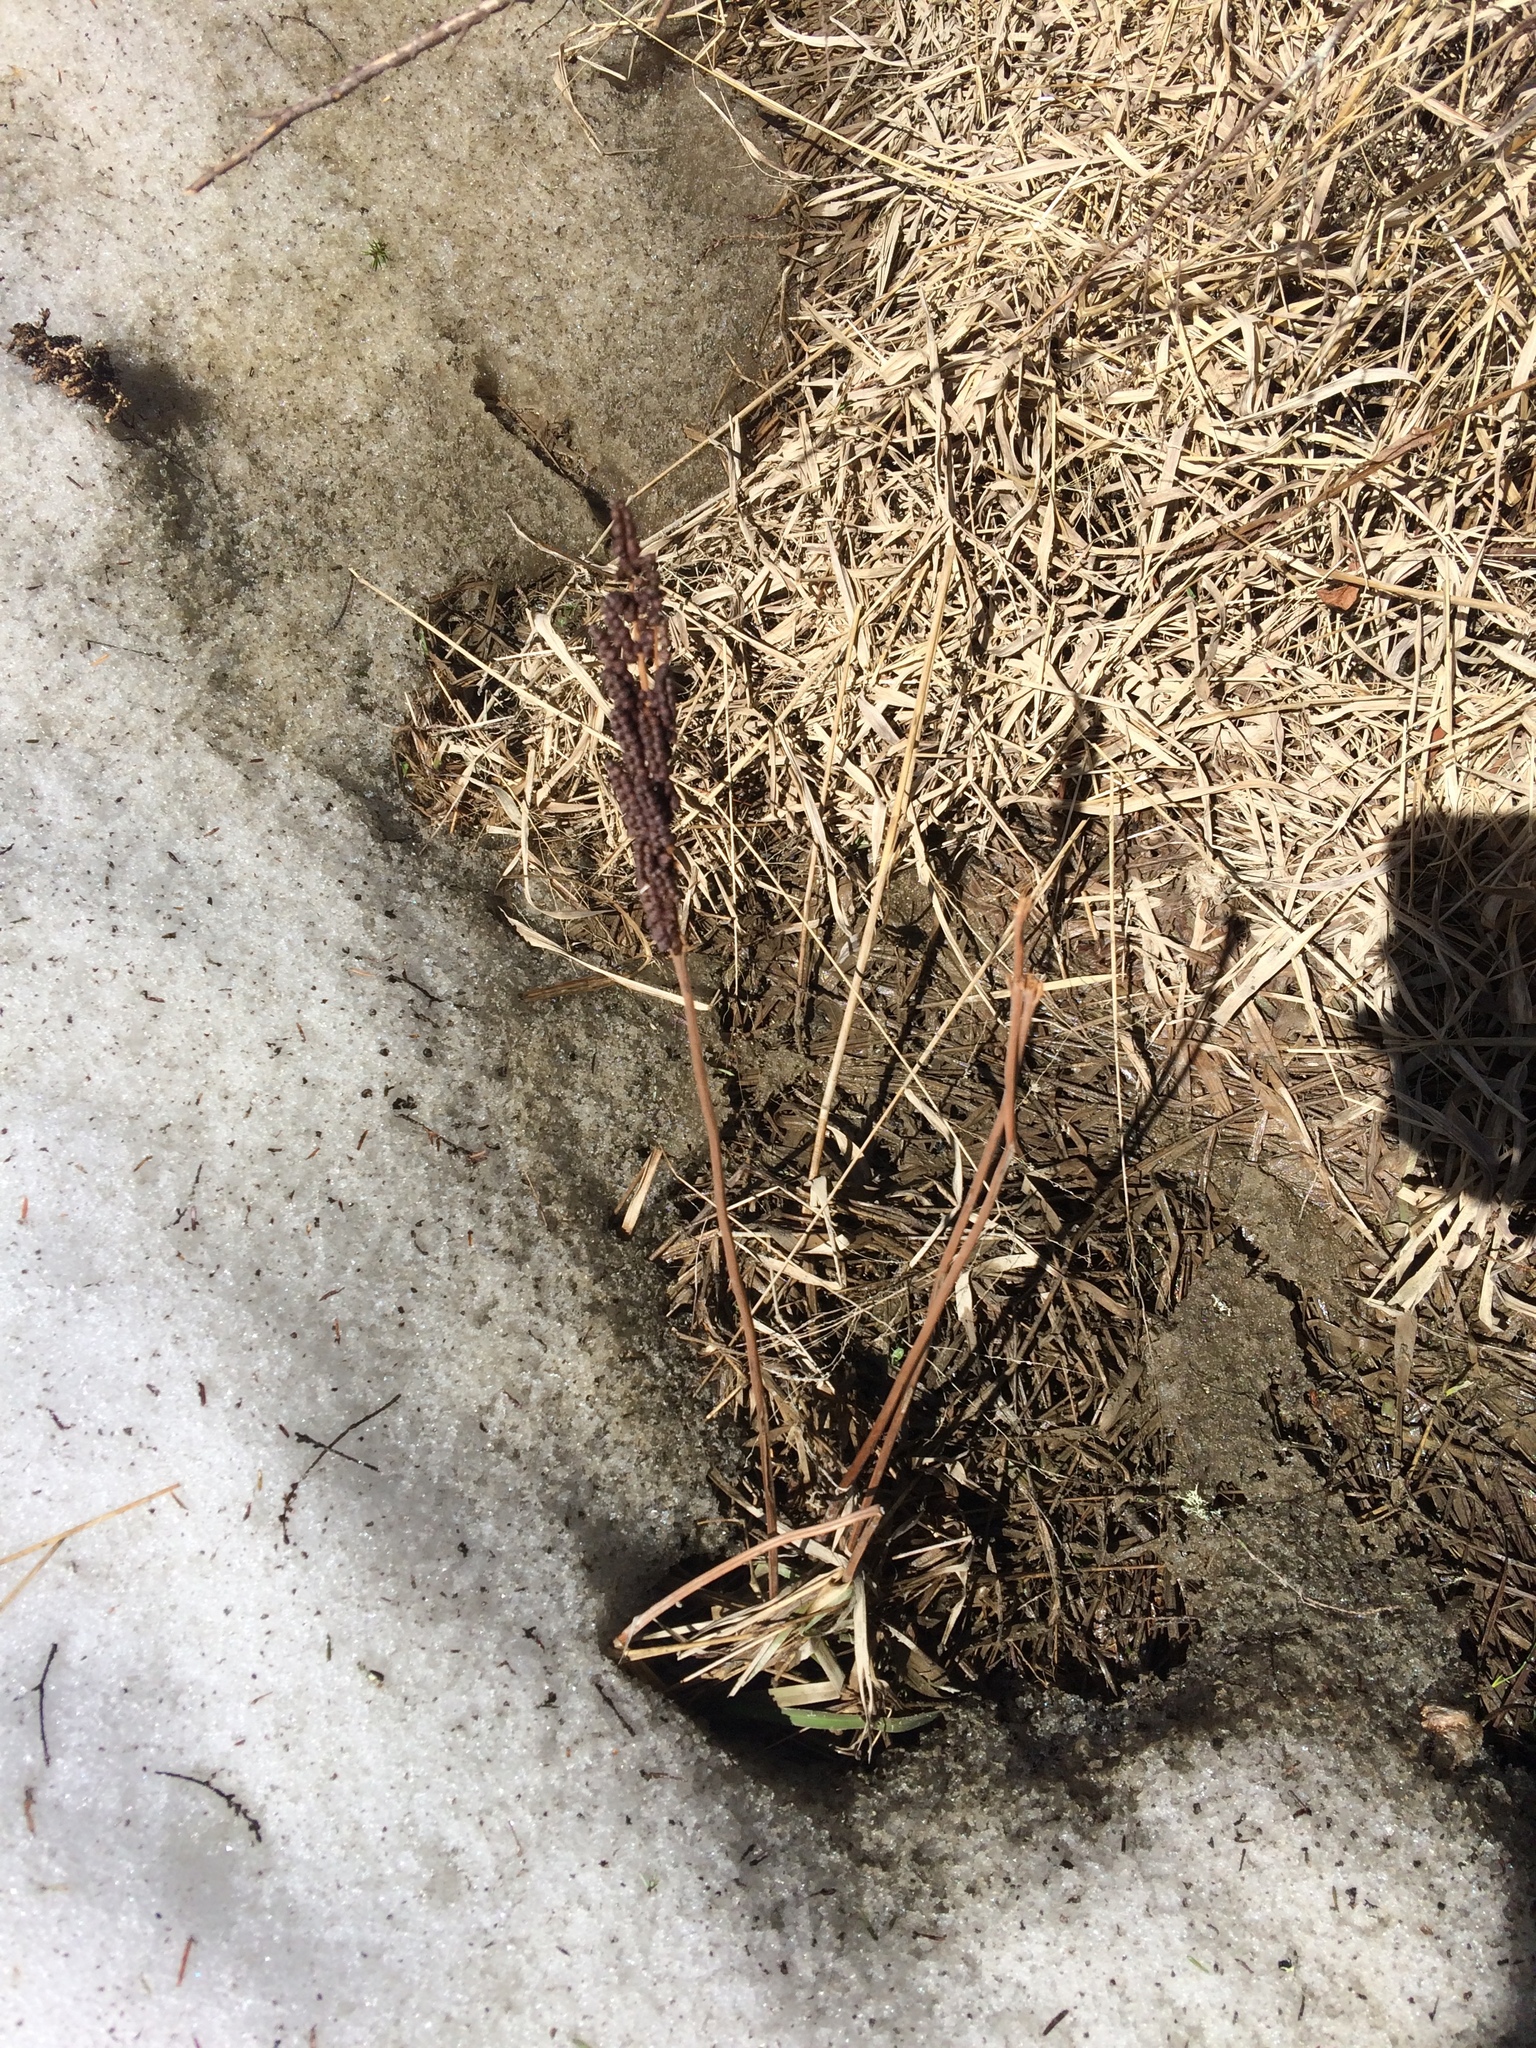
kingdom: Plantae
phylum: Tracheophyta
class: Polypodiopsida
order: Polypodiales
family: Onocleaceae
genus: Onoclea
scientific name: Onoclea sensibilis
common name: Sensitive fern
